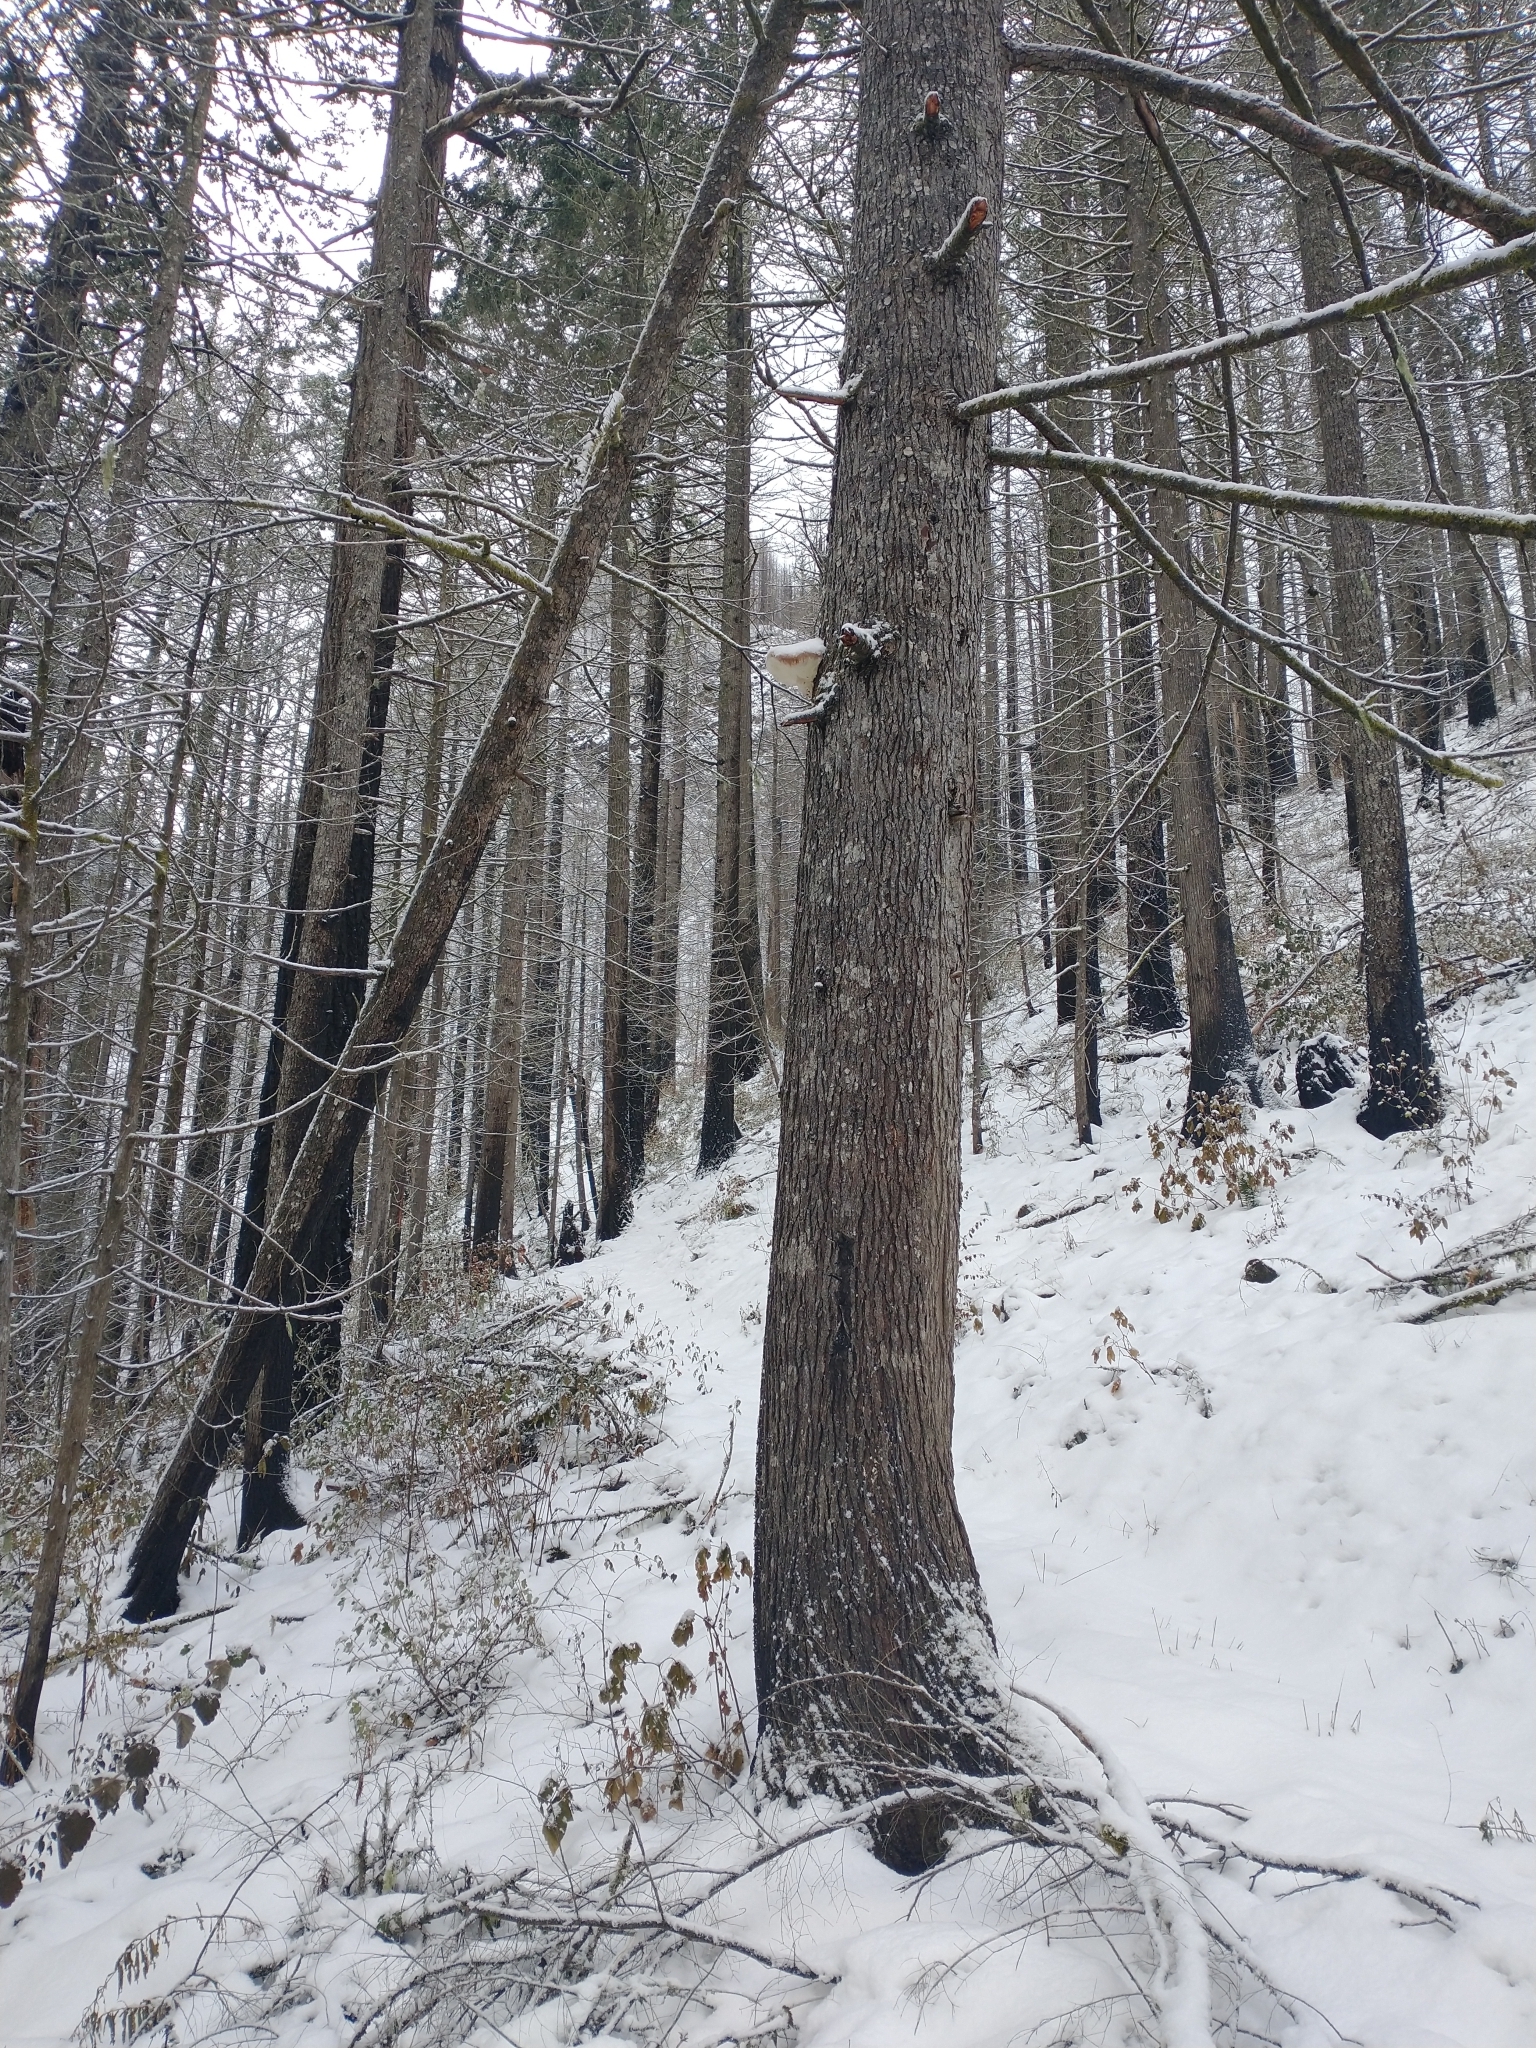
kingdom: Plantae
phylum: Tracheophyta
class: Pinopsida
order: Pinales
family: Pinaceae
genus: Tsuga
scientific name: Tsuga heterophylla
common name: Western hemlock
